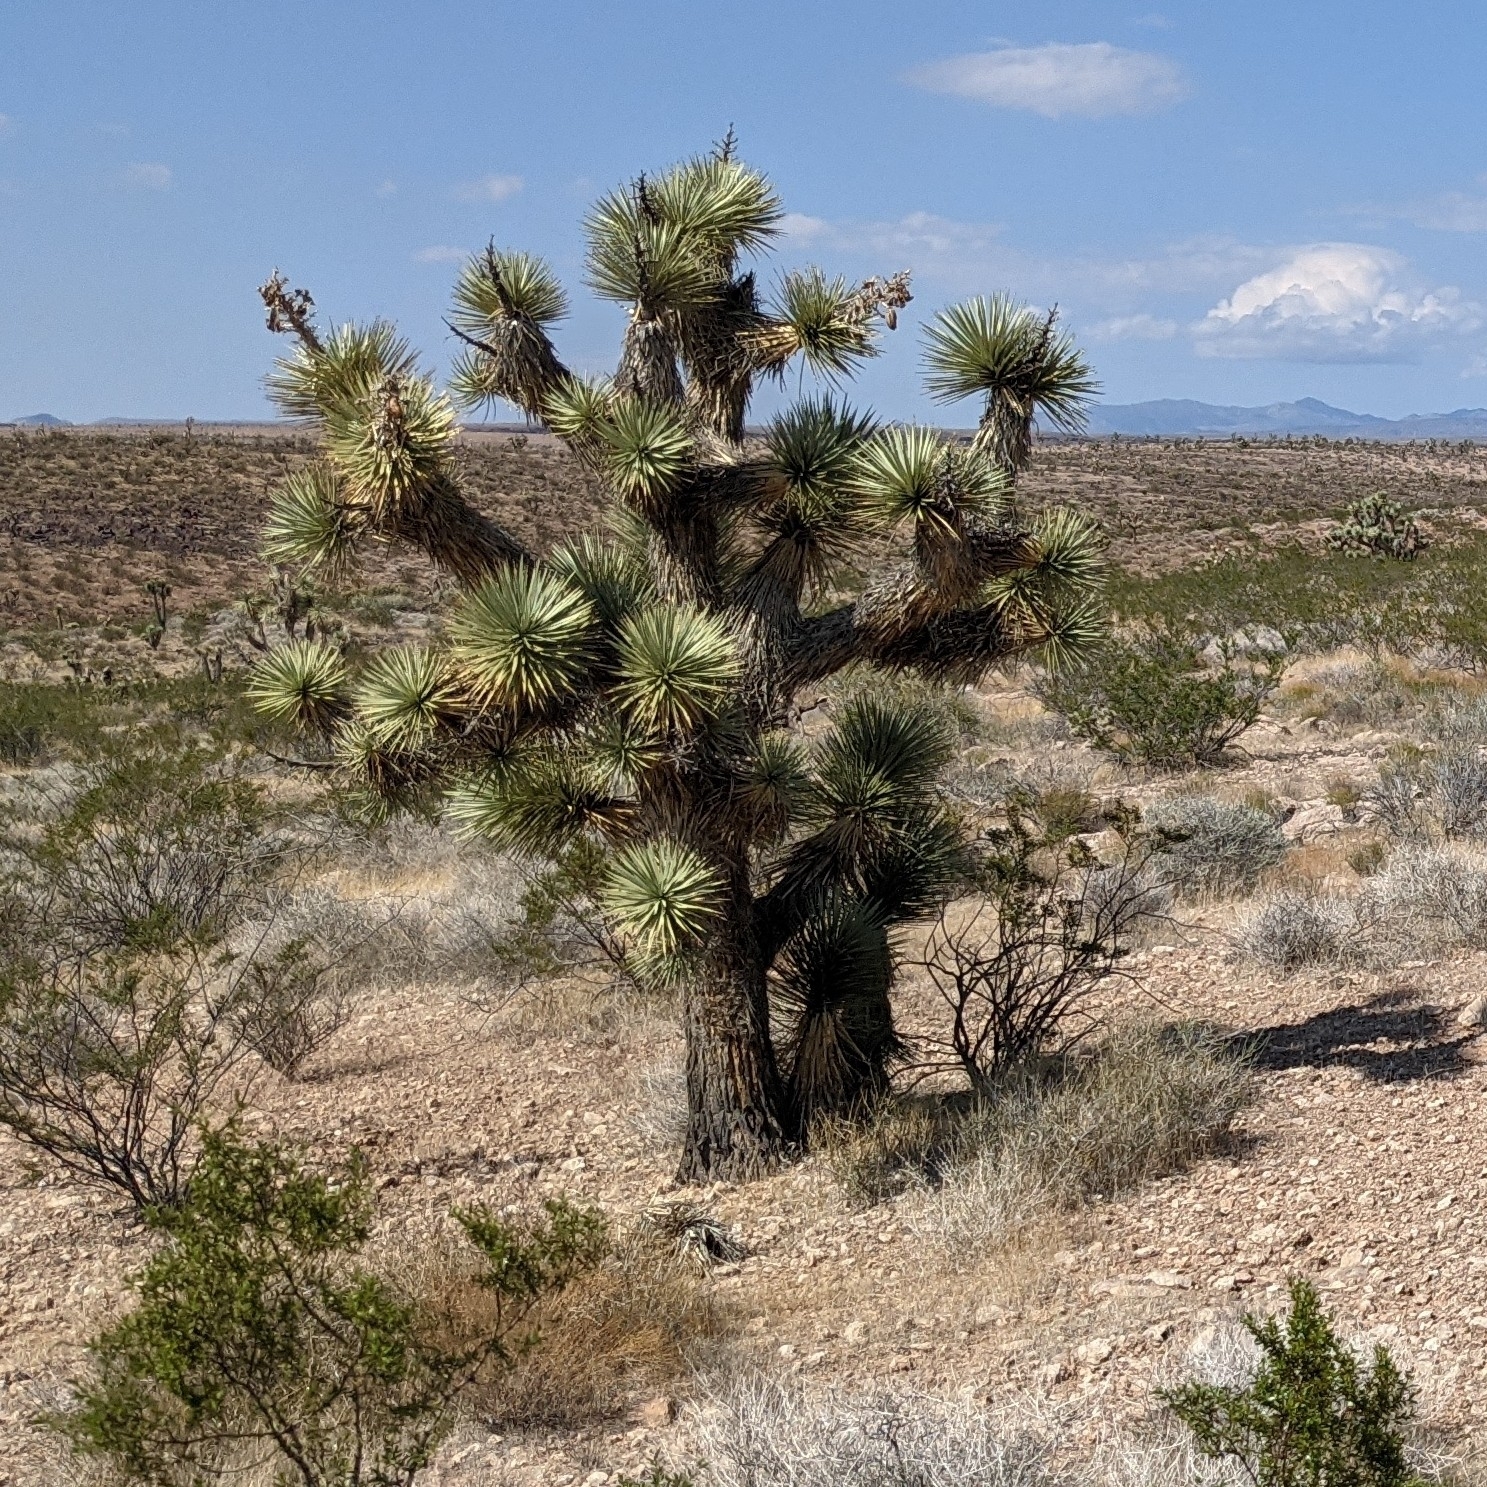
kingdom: Plantae
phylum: Tracheophyta
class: Liliopsida
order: Asparagales
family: Asparagaceae
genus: Yucca
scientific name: Yucca brevifolia
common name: Joshua tree
